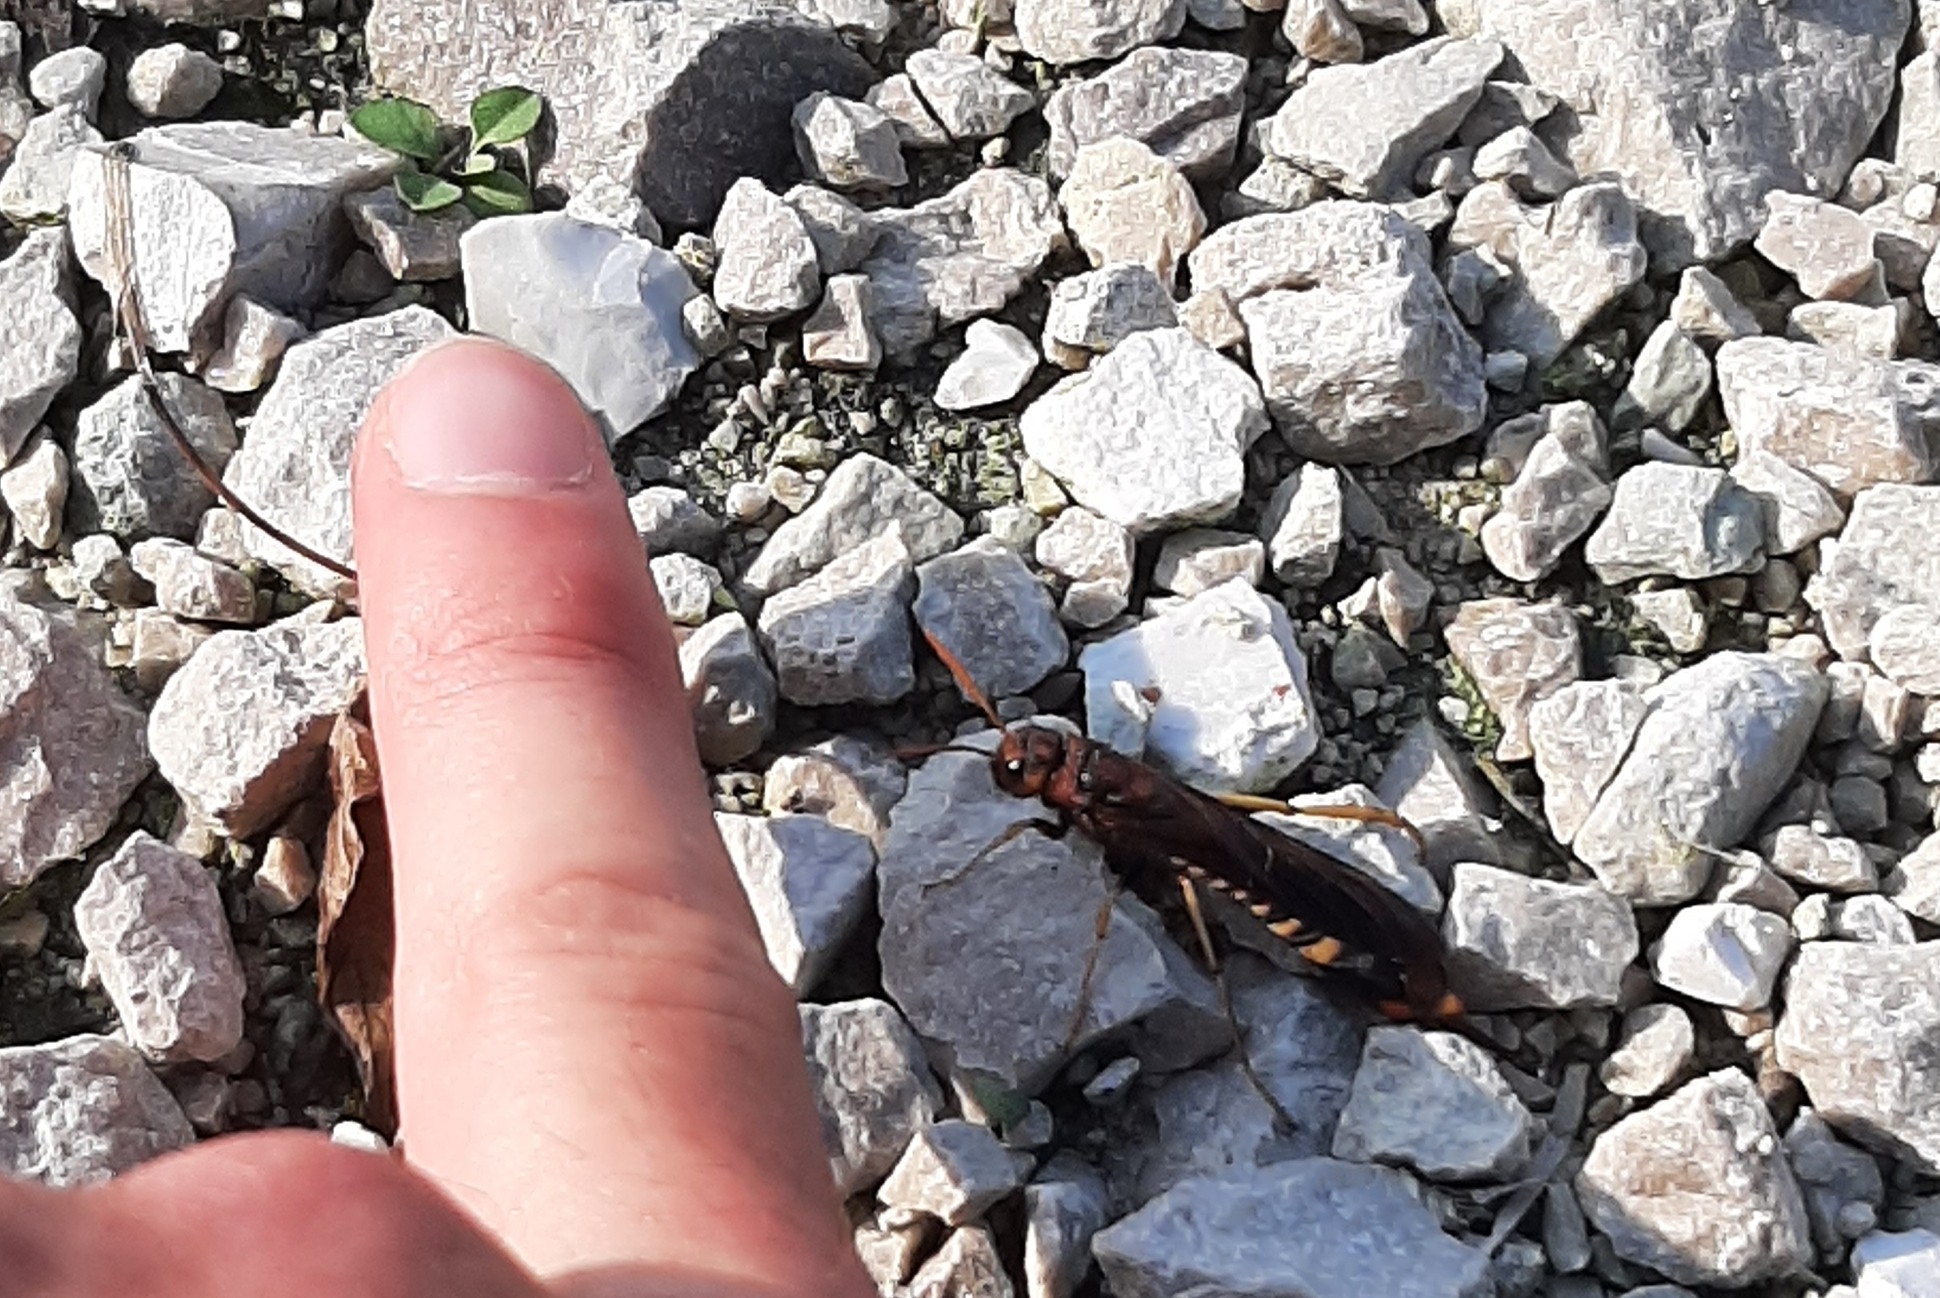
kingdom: Animalia
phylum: Arthropoda
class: Insecta
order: Hymenoptera
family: Siricidae
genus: Tremex
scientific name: Tremex columba
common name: Wasp
